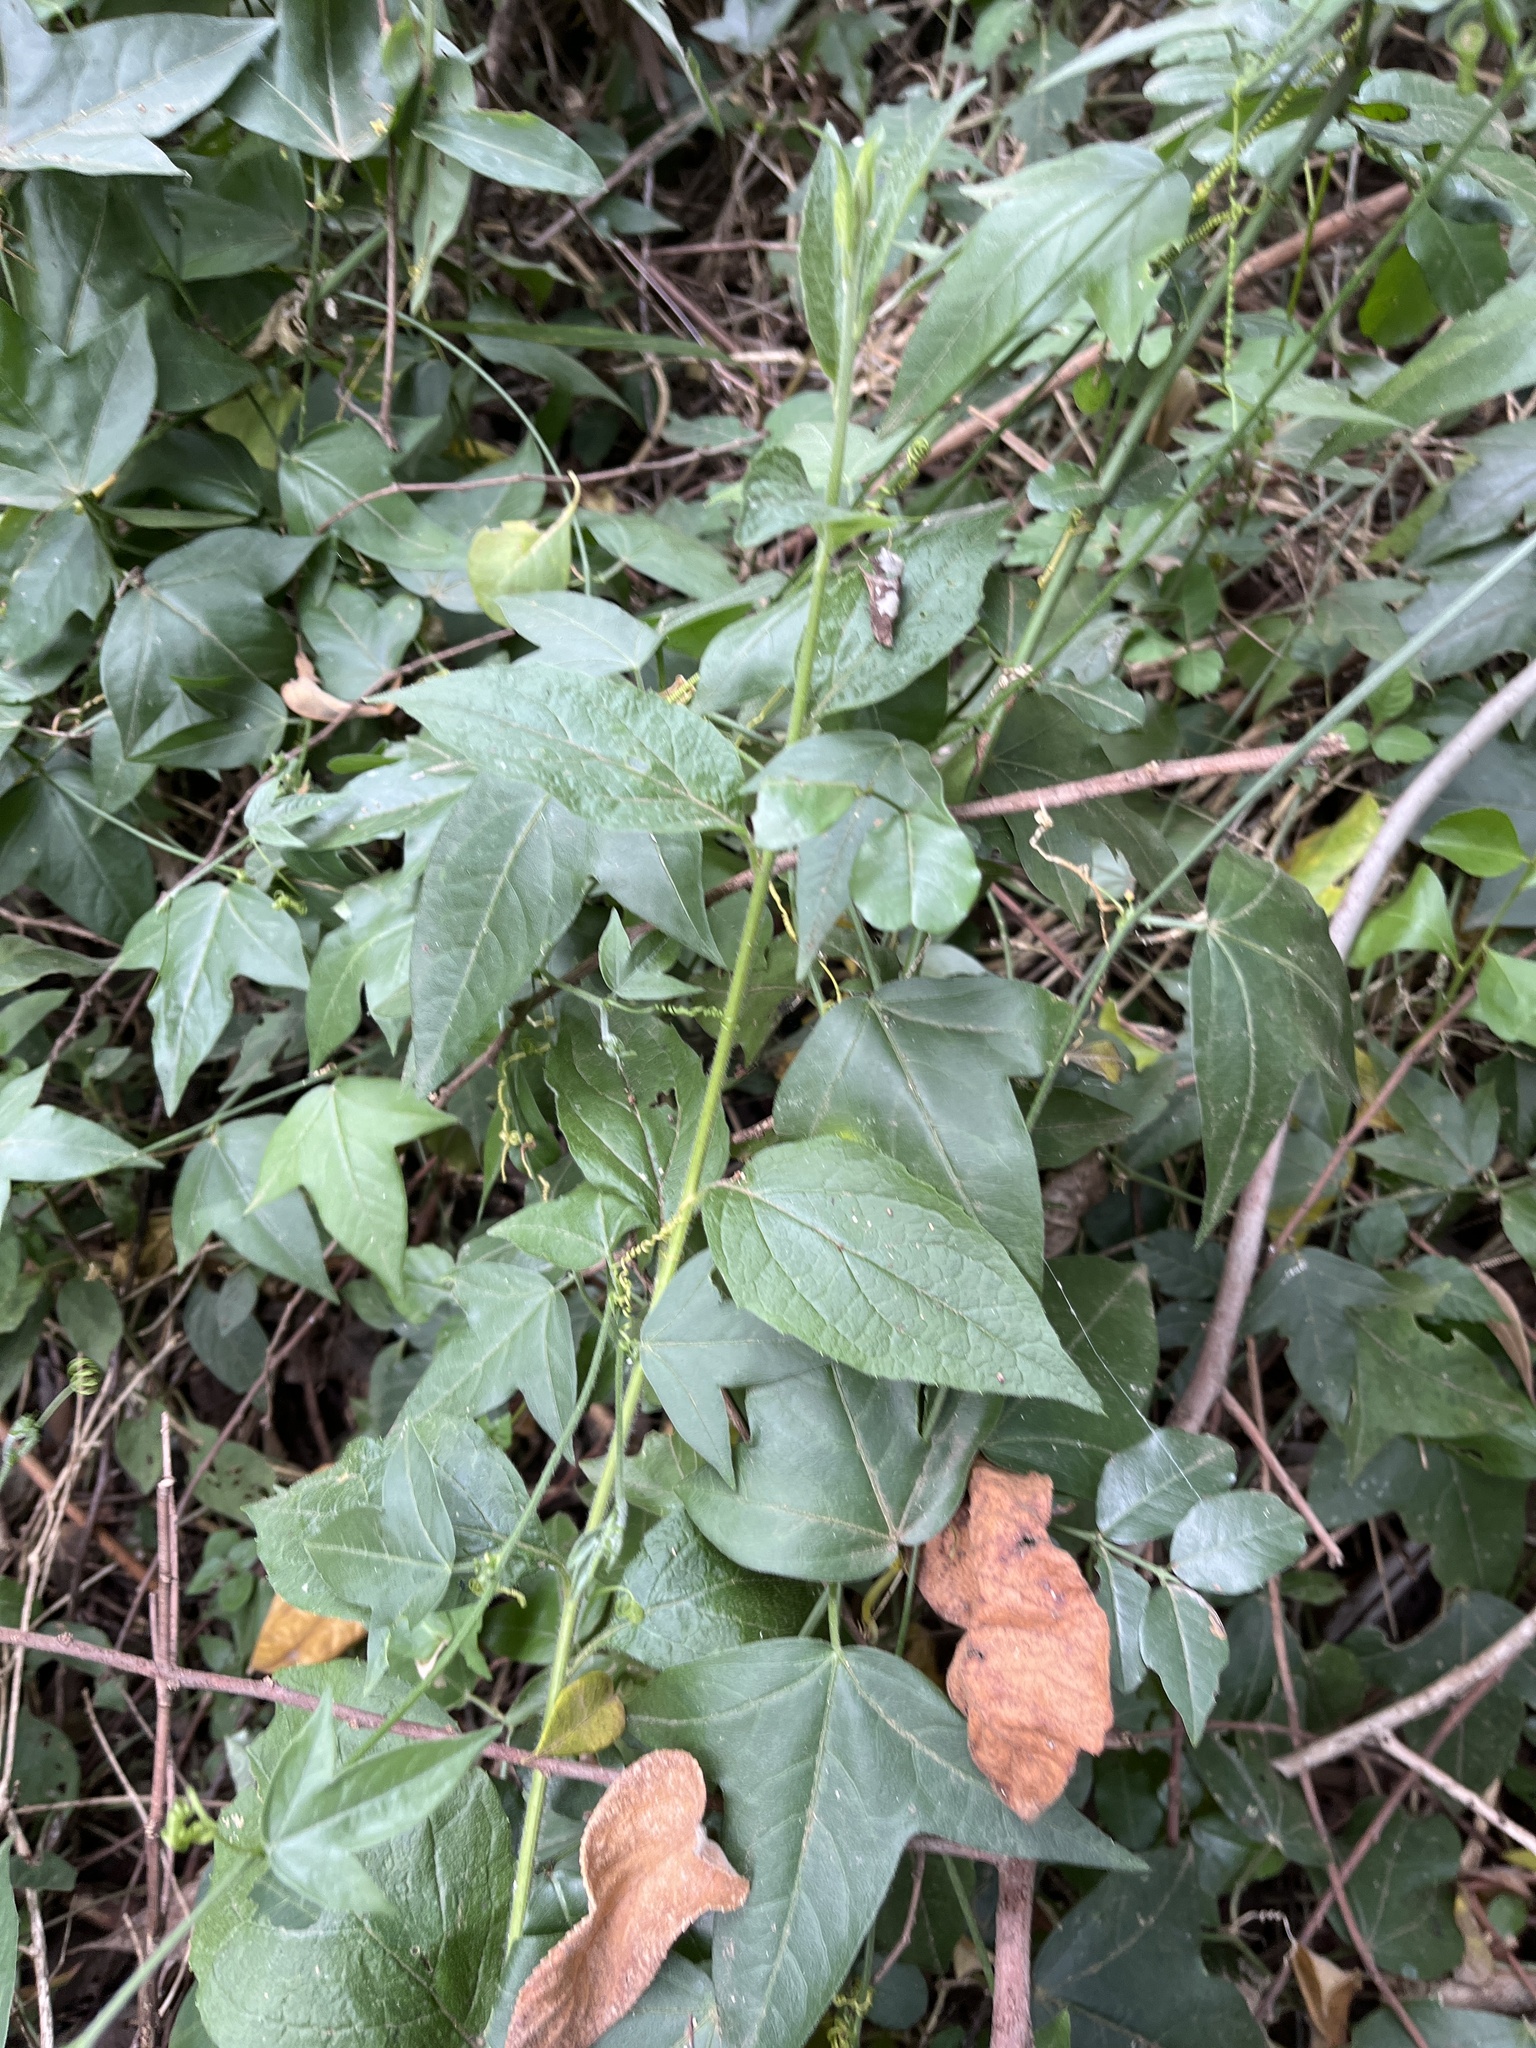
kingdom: Plantae
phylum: Tracheophyta
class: Magnoliopsida
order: Malpighiales
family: Passifloraceae
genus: Passiflora
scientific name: Passiflora suberosa
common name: Wild passionfruit
